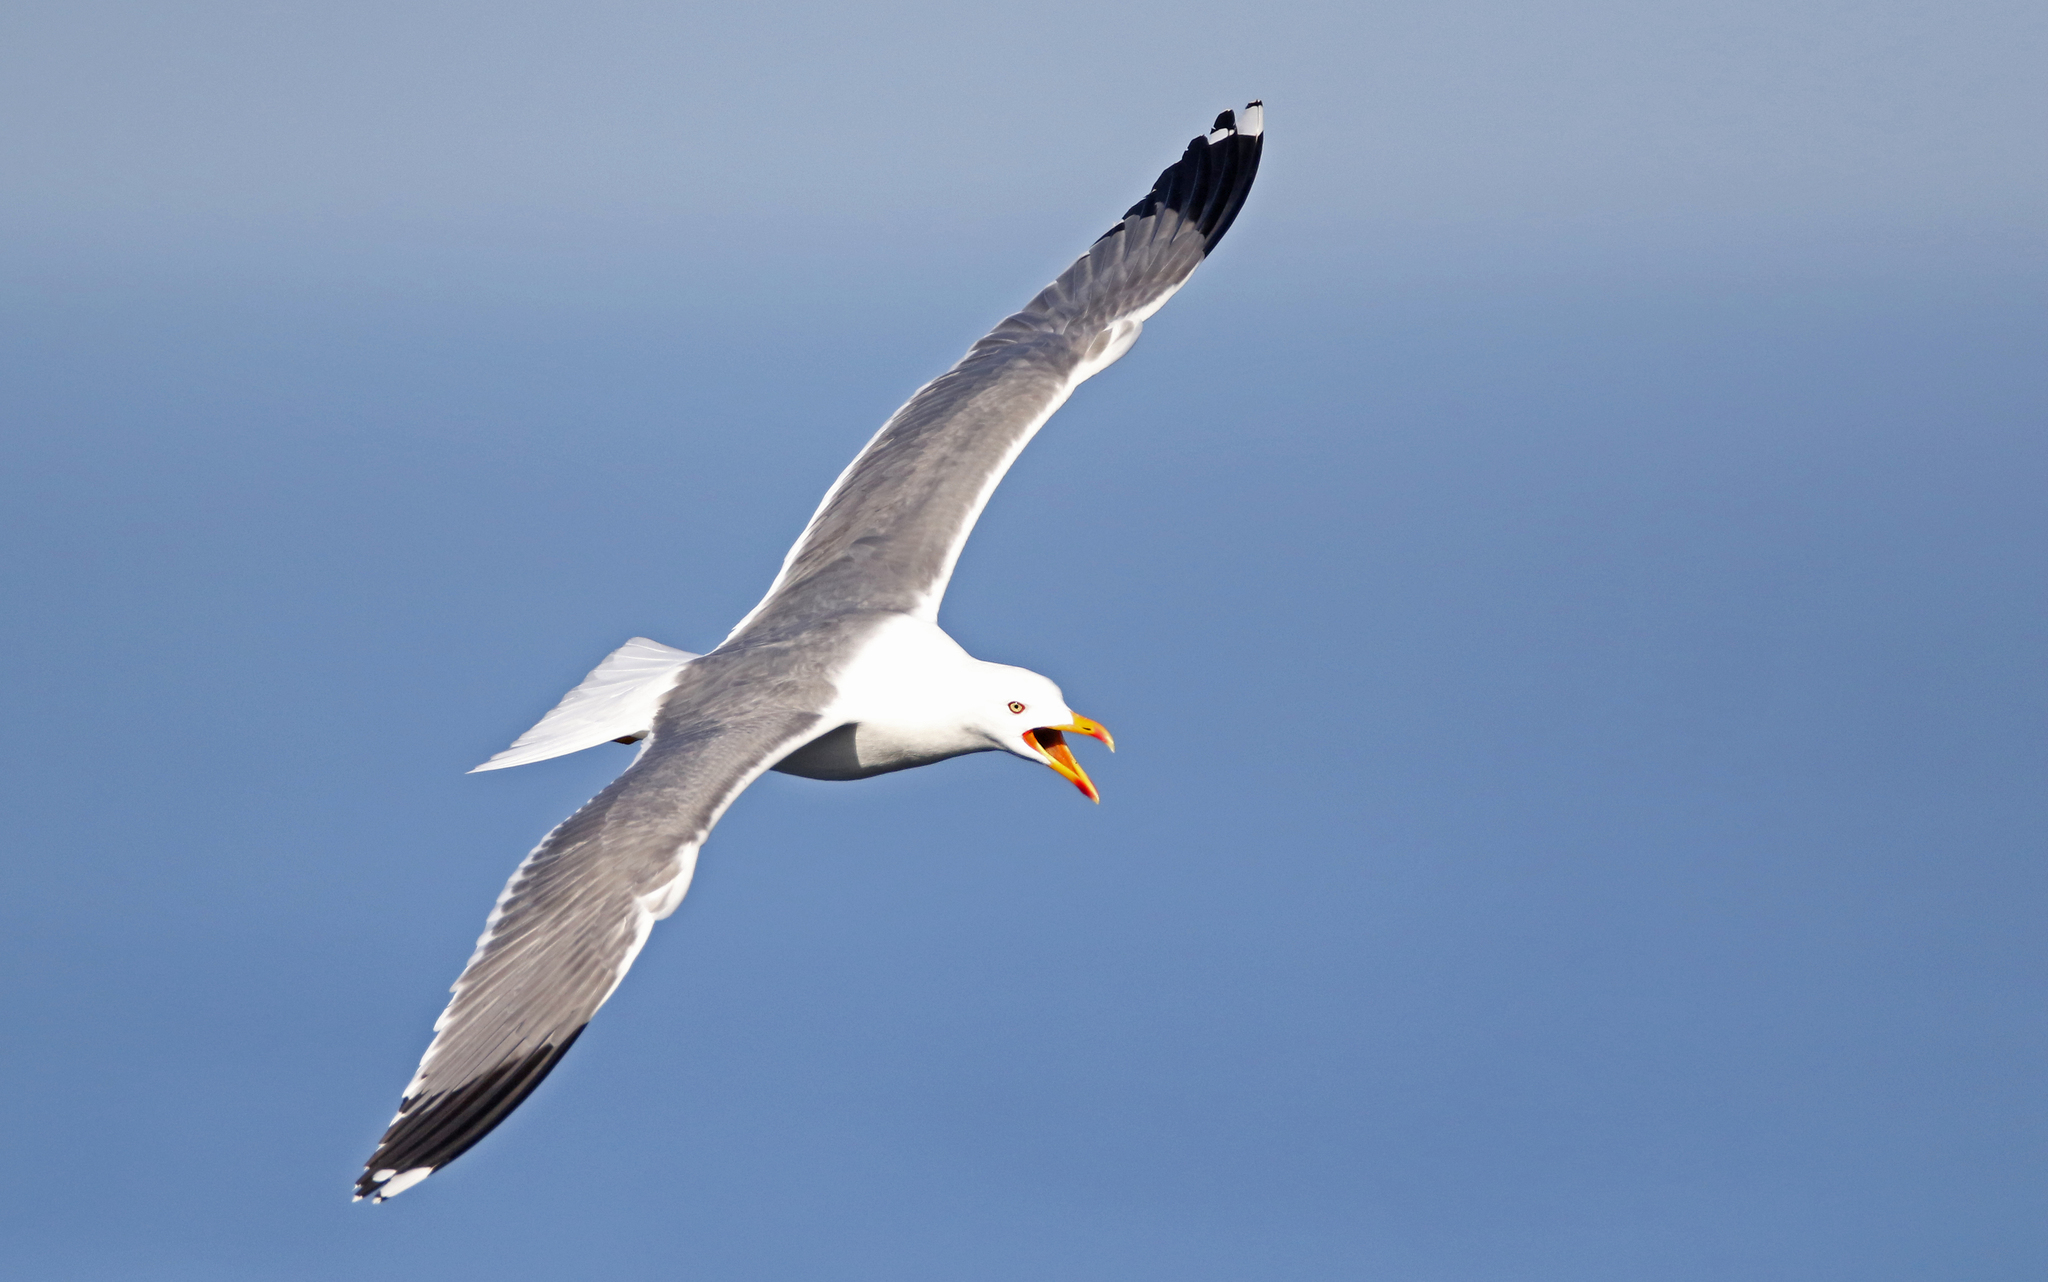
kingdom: Animalia
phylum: Chordata
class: Aves
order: Charadriiformes
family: Laridae
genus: Larus
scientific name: Larus michahellis
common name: Yellow-legged gull
